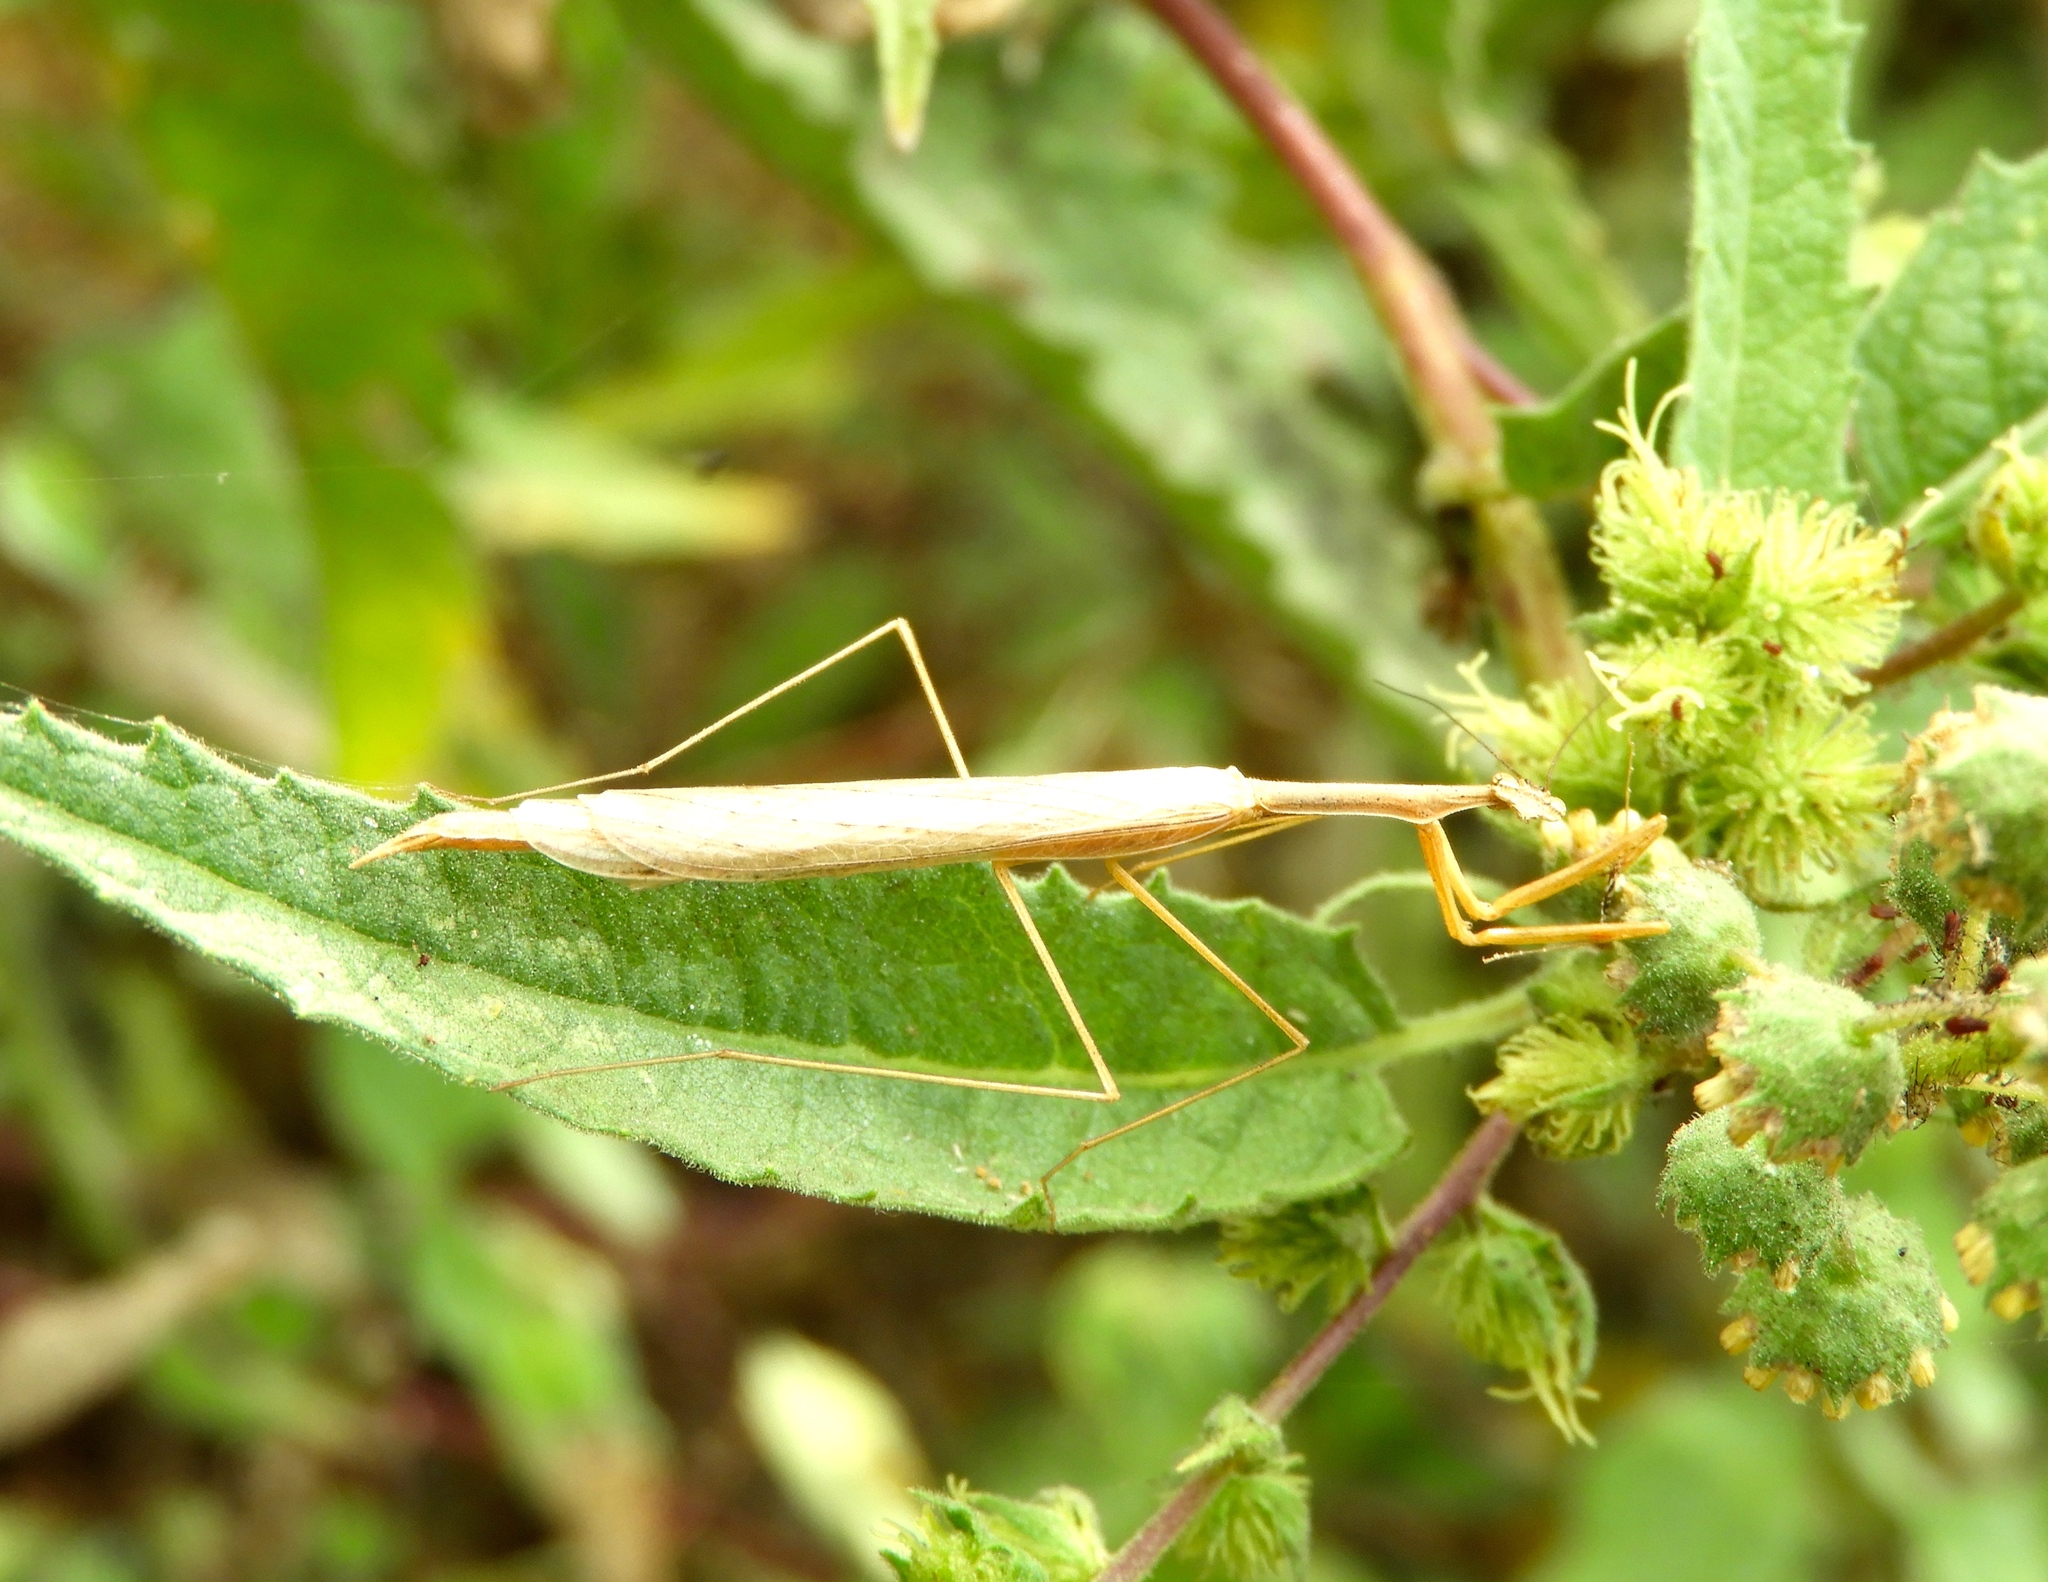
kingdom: Animalia
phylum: Arthropoda
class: Insecta
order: Mantodea
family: Thespidae
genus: Bistanta
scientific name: Bistanta mexicana
